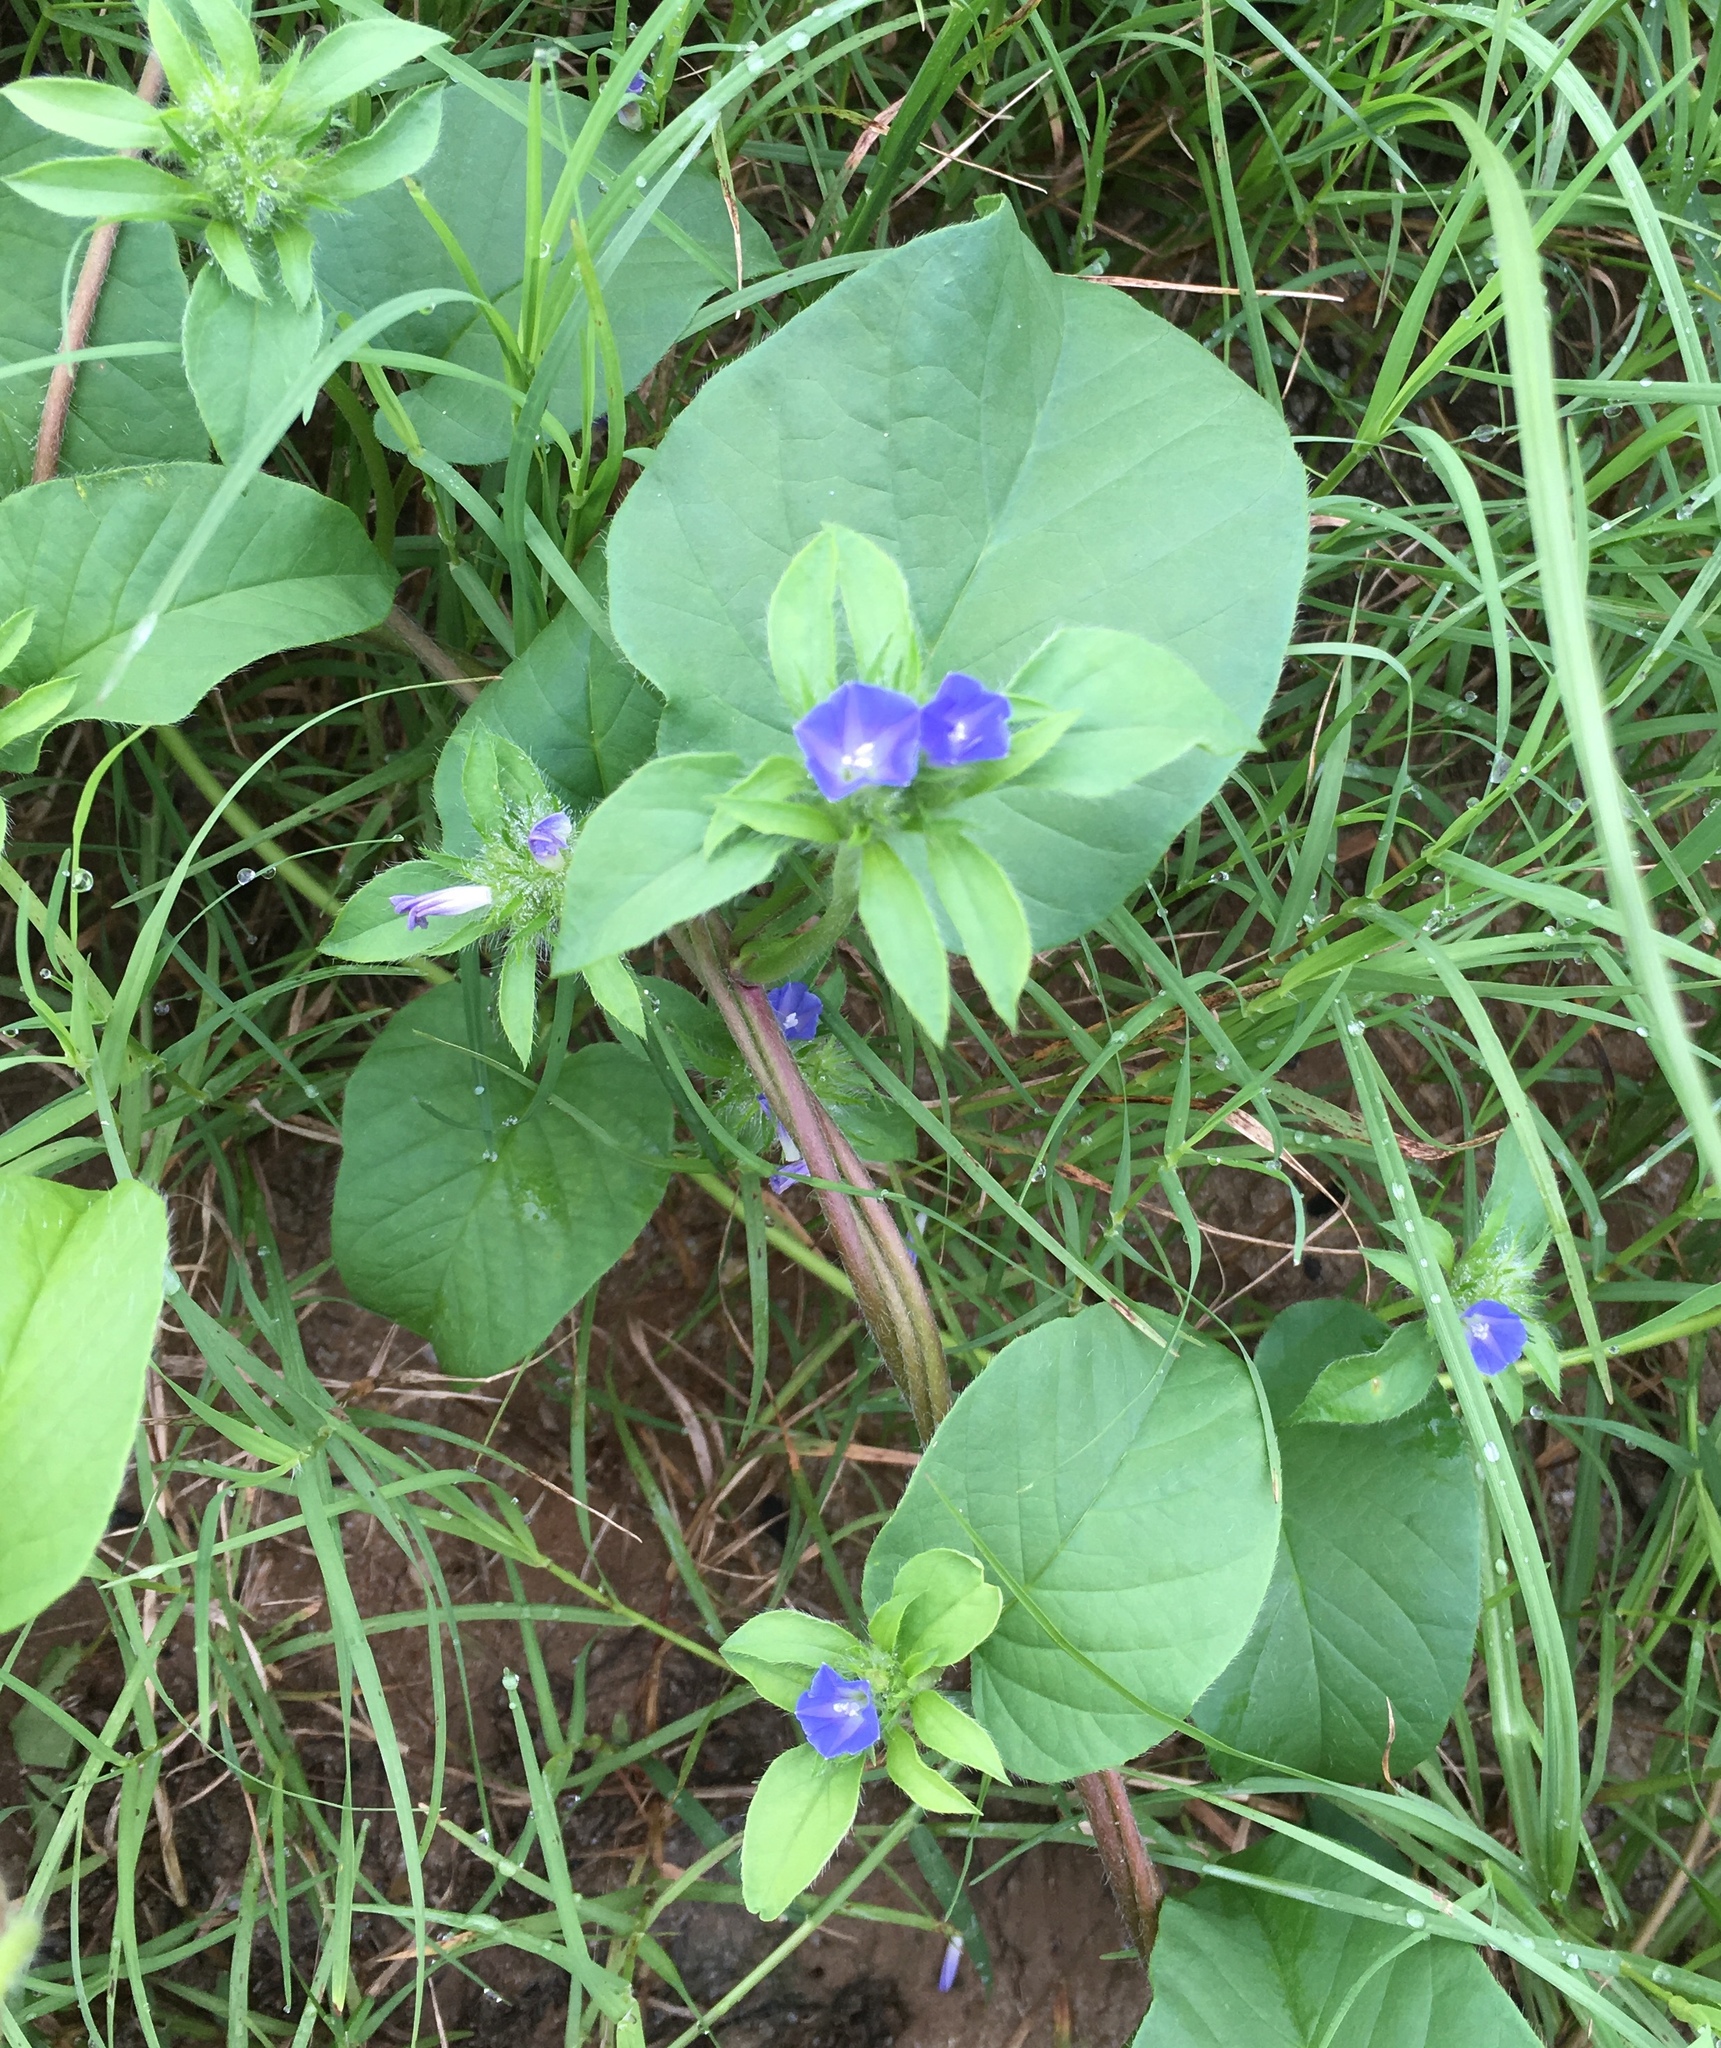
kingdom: Plantae
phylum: Tracheophyta
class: Magnoliopsida
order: Solanales
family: Convolvulaceae
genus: Jacquemontia
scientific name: Jacquemontia tamnifolia
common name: Hairy clustervine
